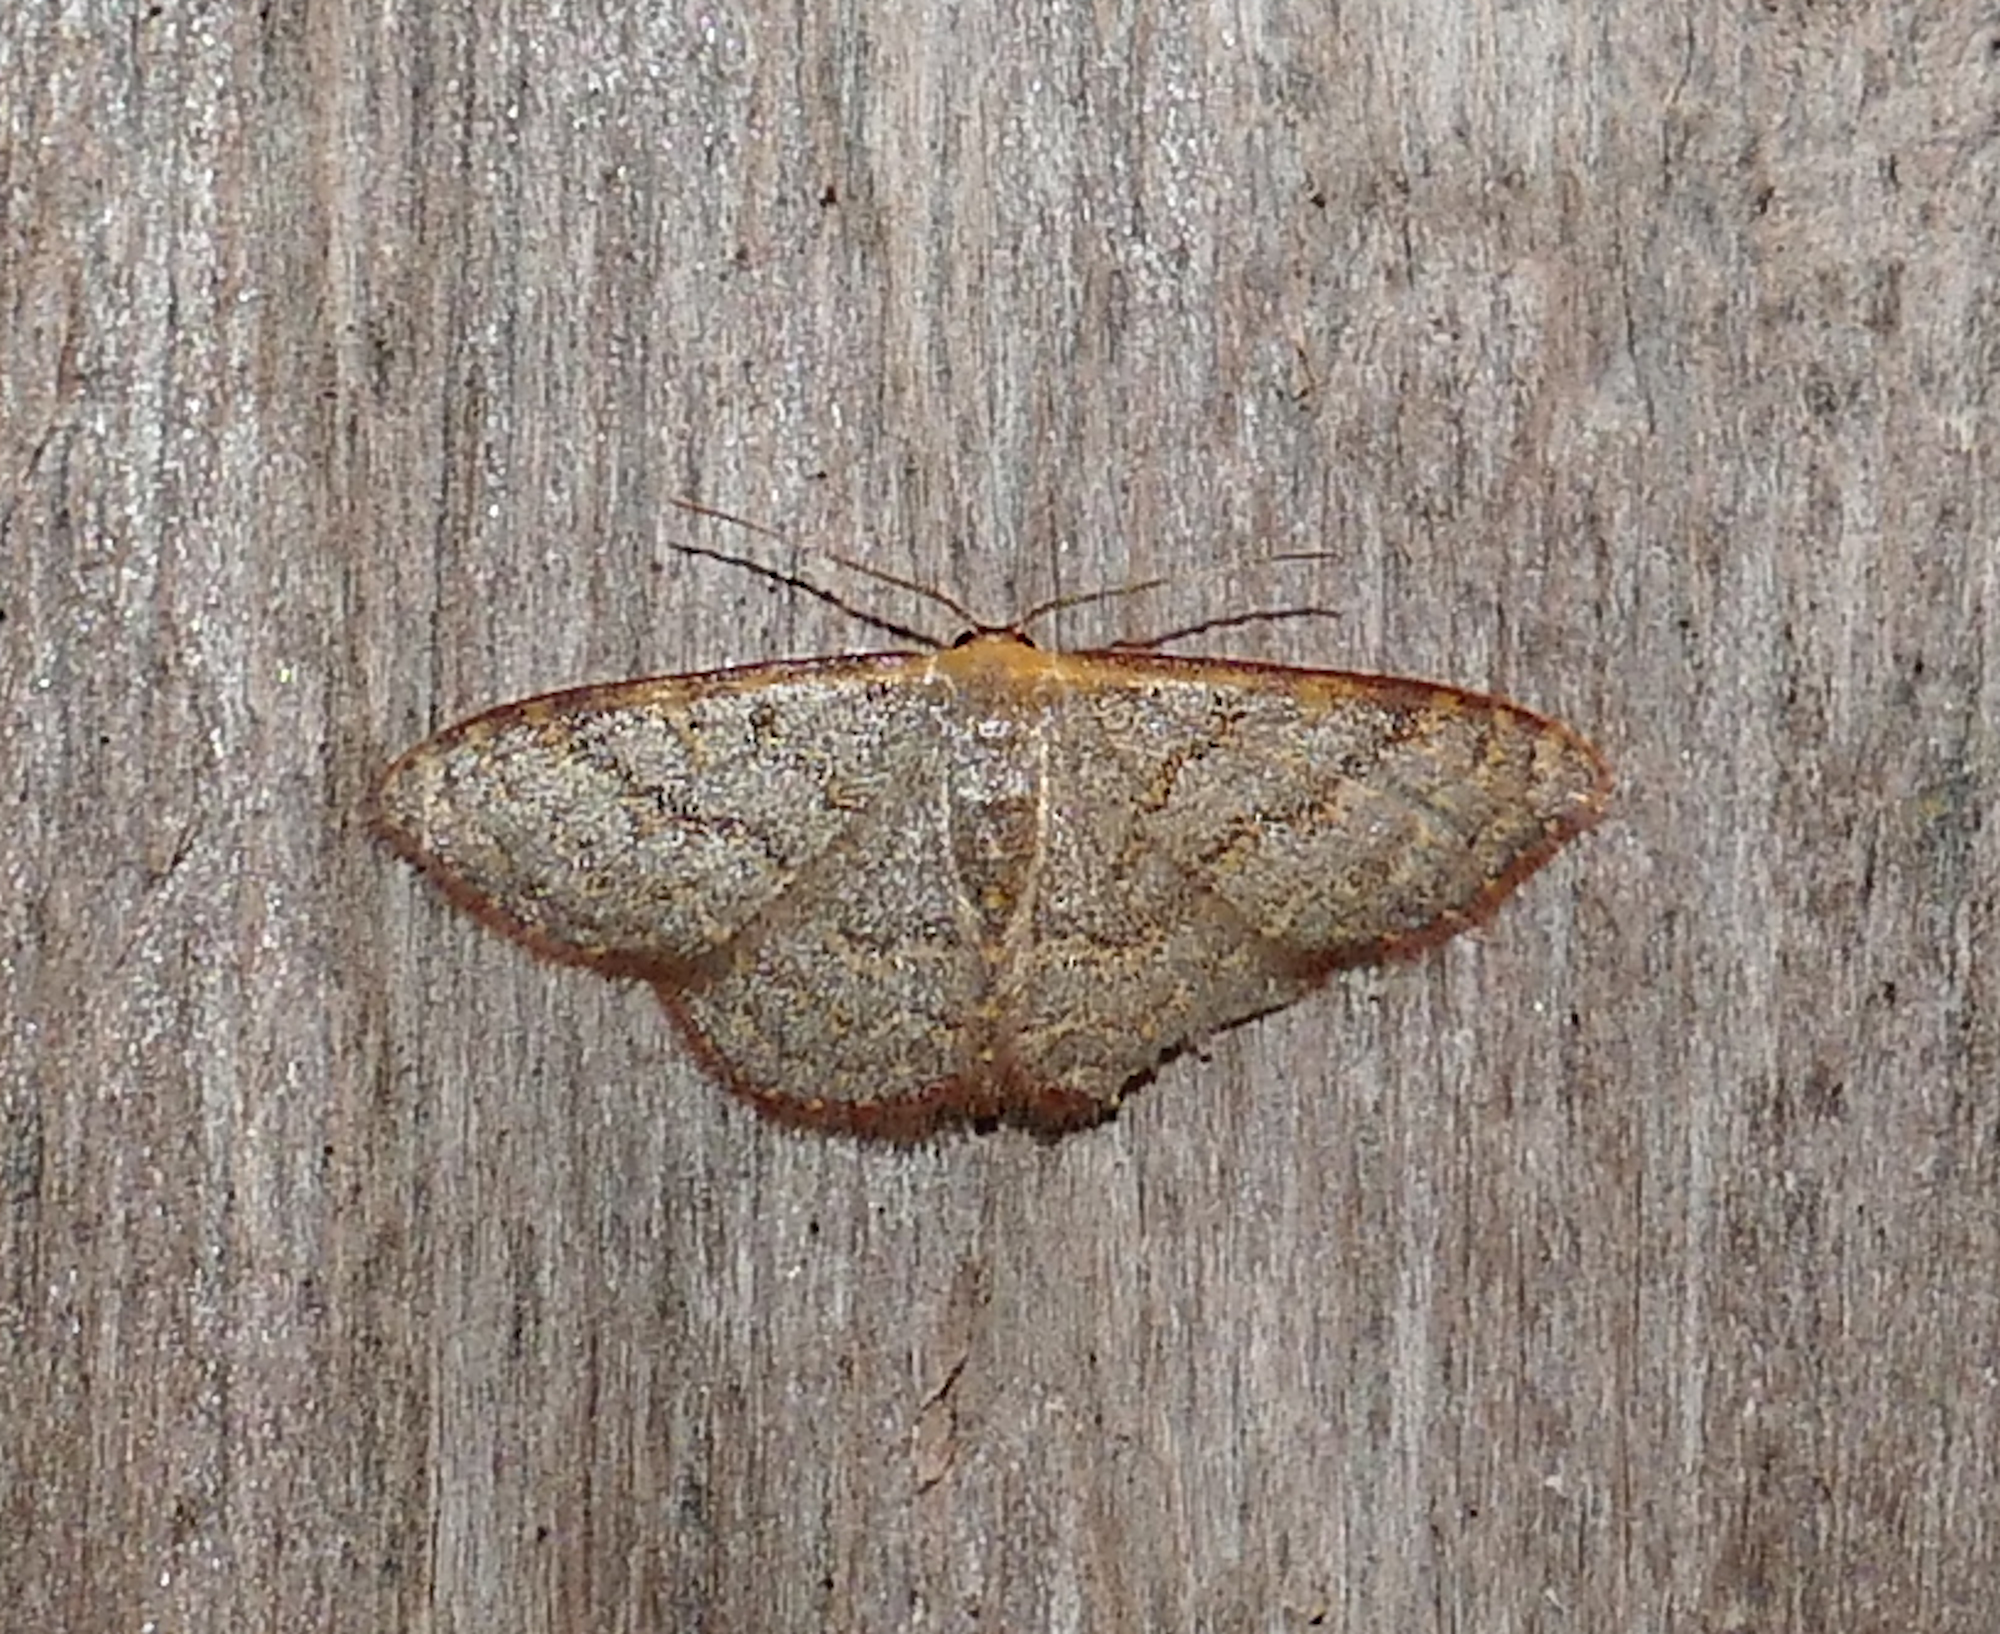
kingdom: Animalia
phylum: Arthropoda
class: Insecta
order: Lepidoptera
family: Geometridae
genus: Leptostales
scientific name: Leptostales pannaria
